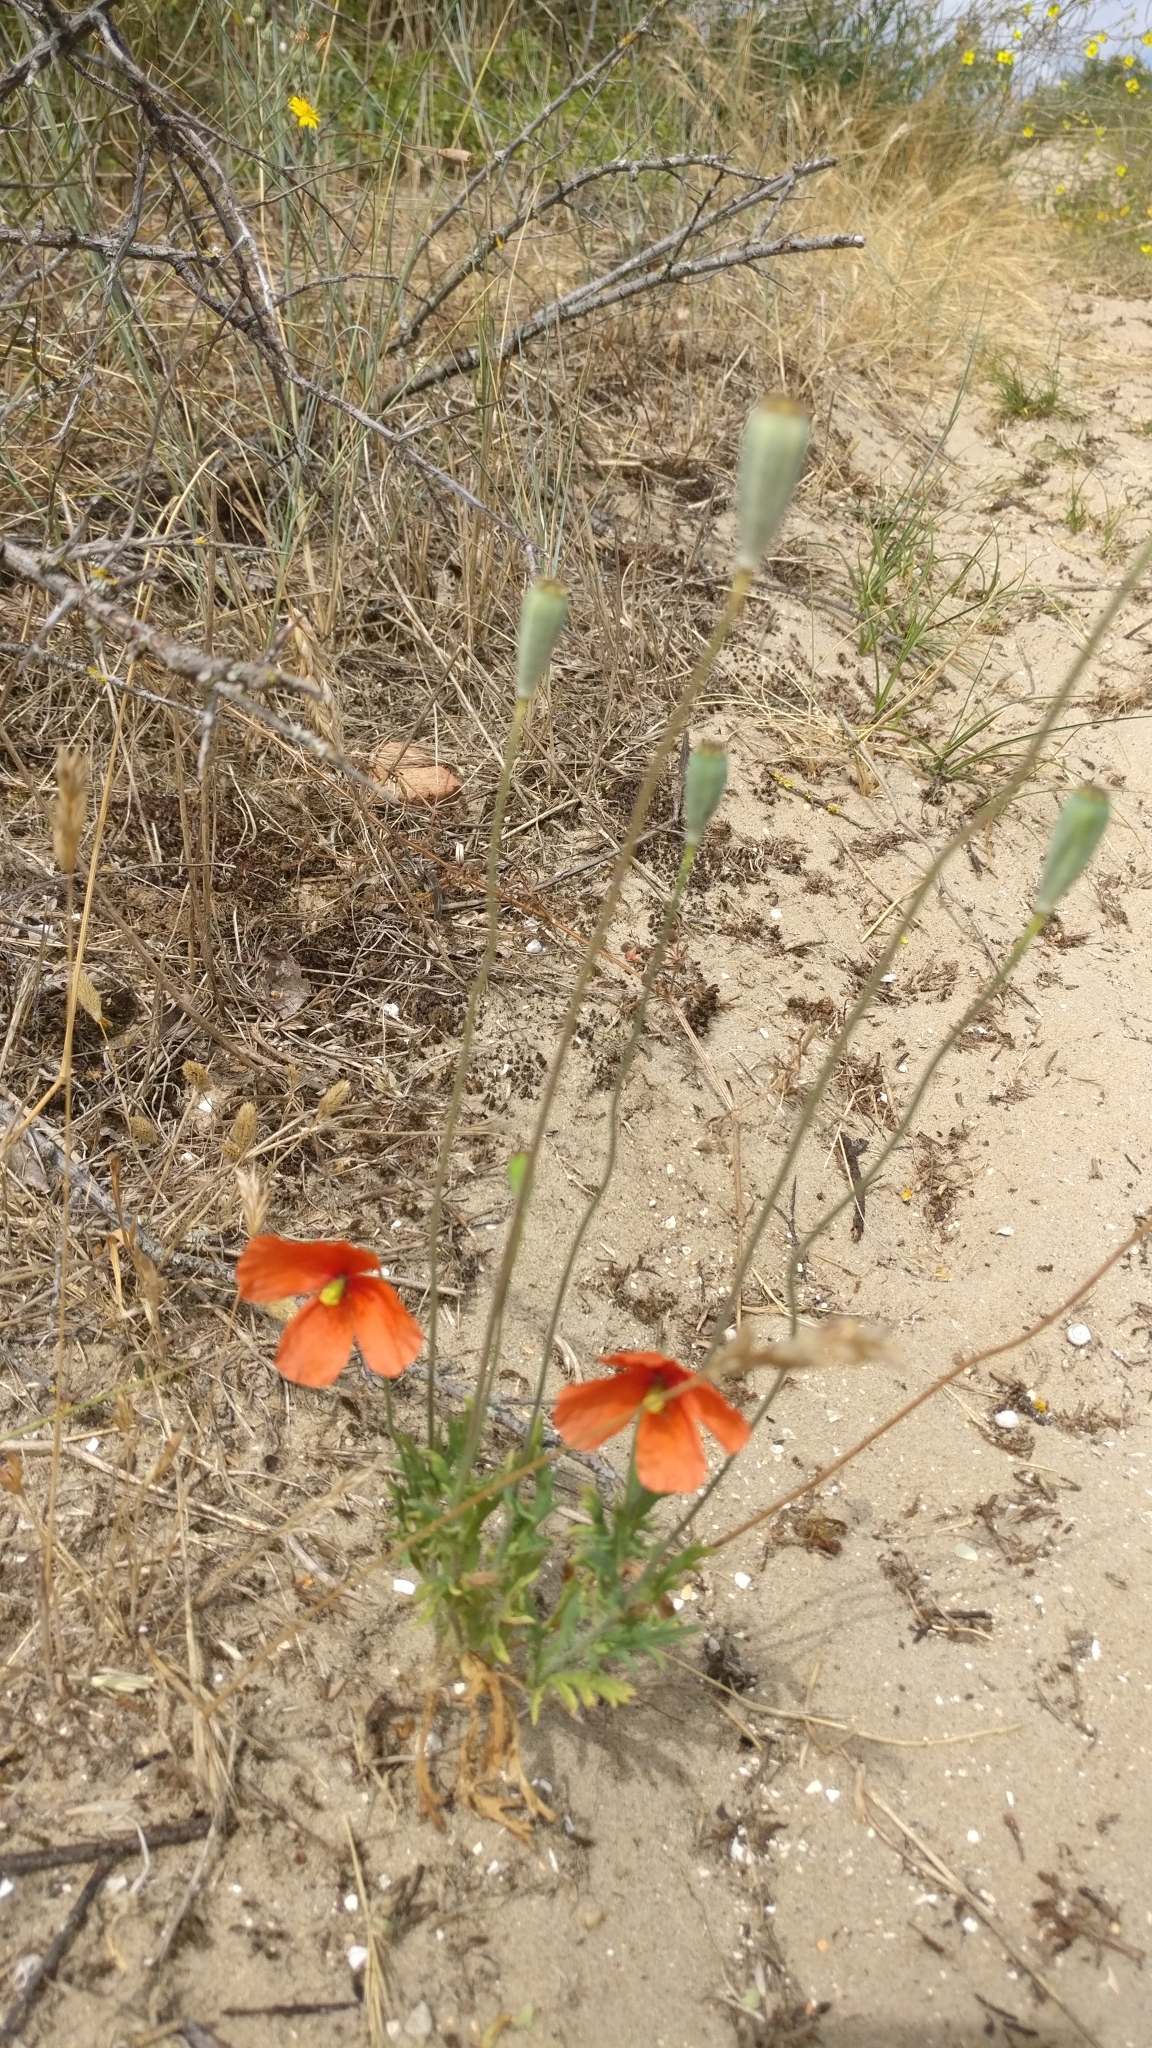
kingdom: Plantae
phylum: Tracheophyta
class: Magnoliopsida
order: Ranunculales
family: Papaveraceae
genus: Papaver
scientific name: Papaver dubium
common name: Long-headed poppy
